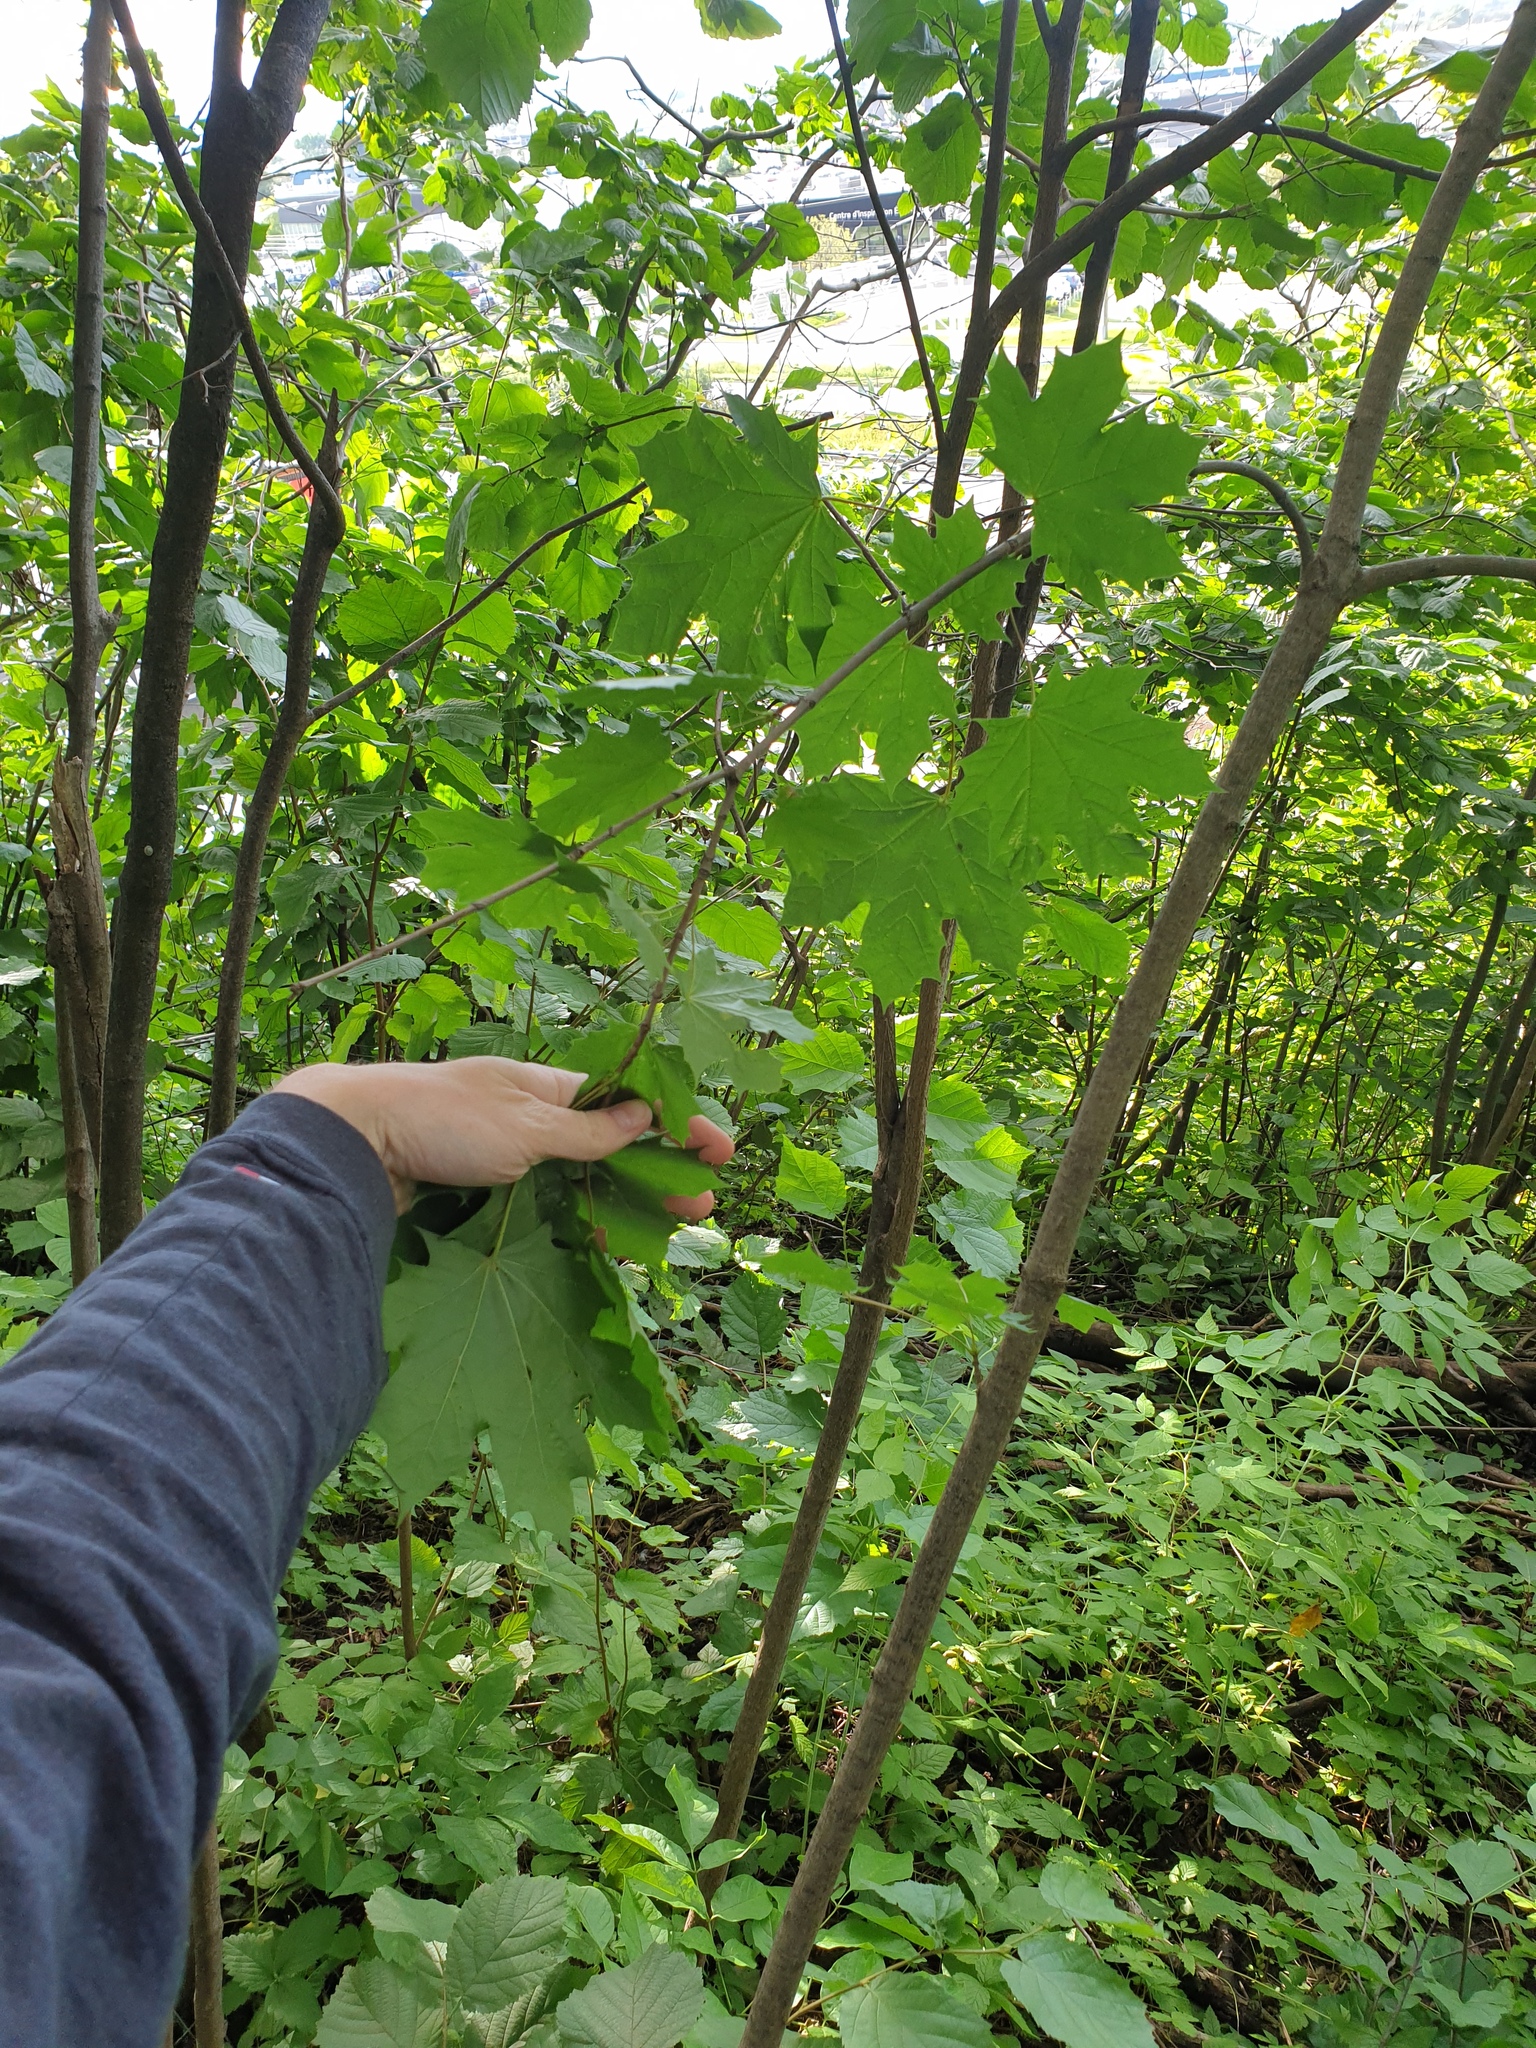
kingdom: Plantae
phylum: Tracheophyta
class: Magnoliopsida
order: Sapindales
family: Sapindaceae
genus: Acer
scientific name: Acer platanoides
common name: Norway maple
